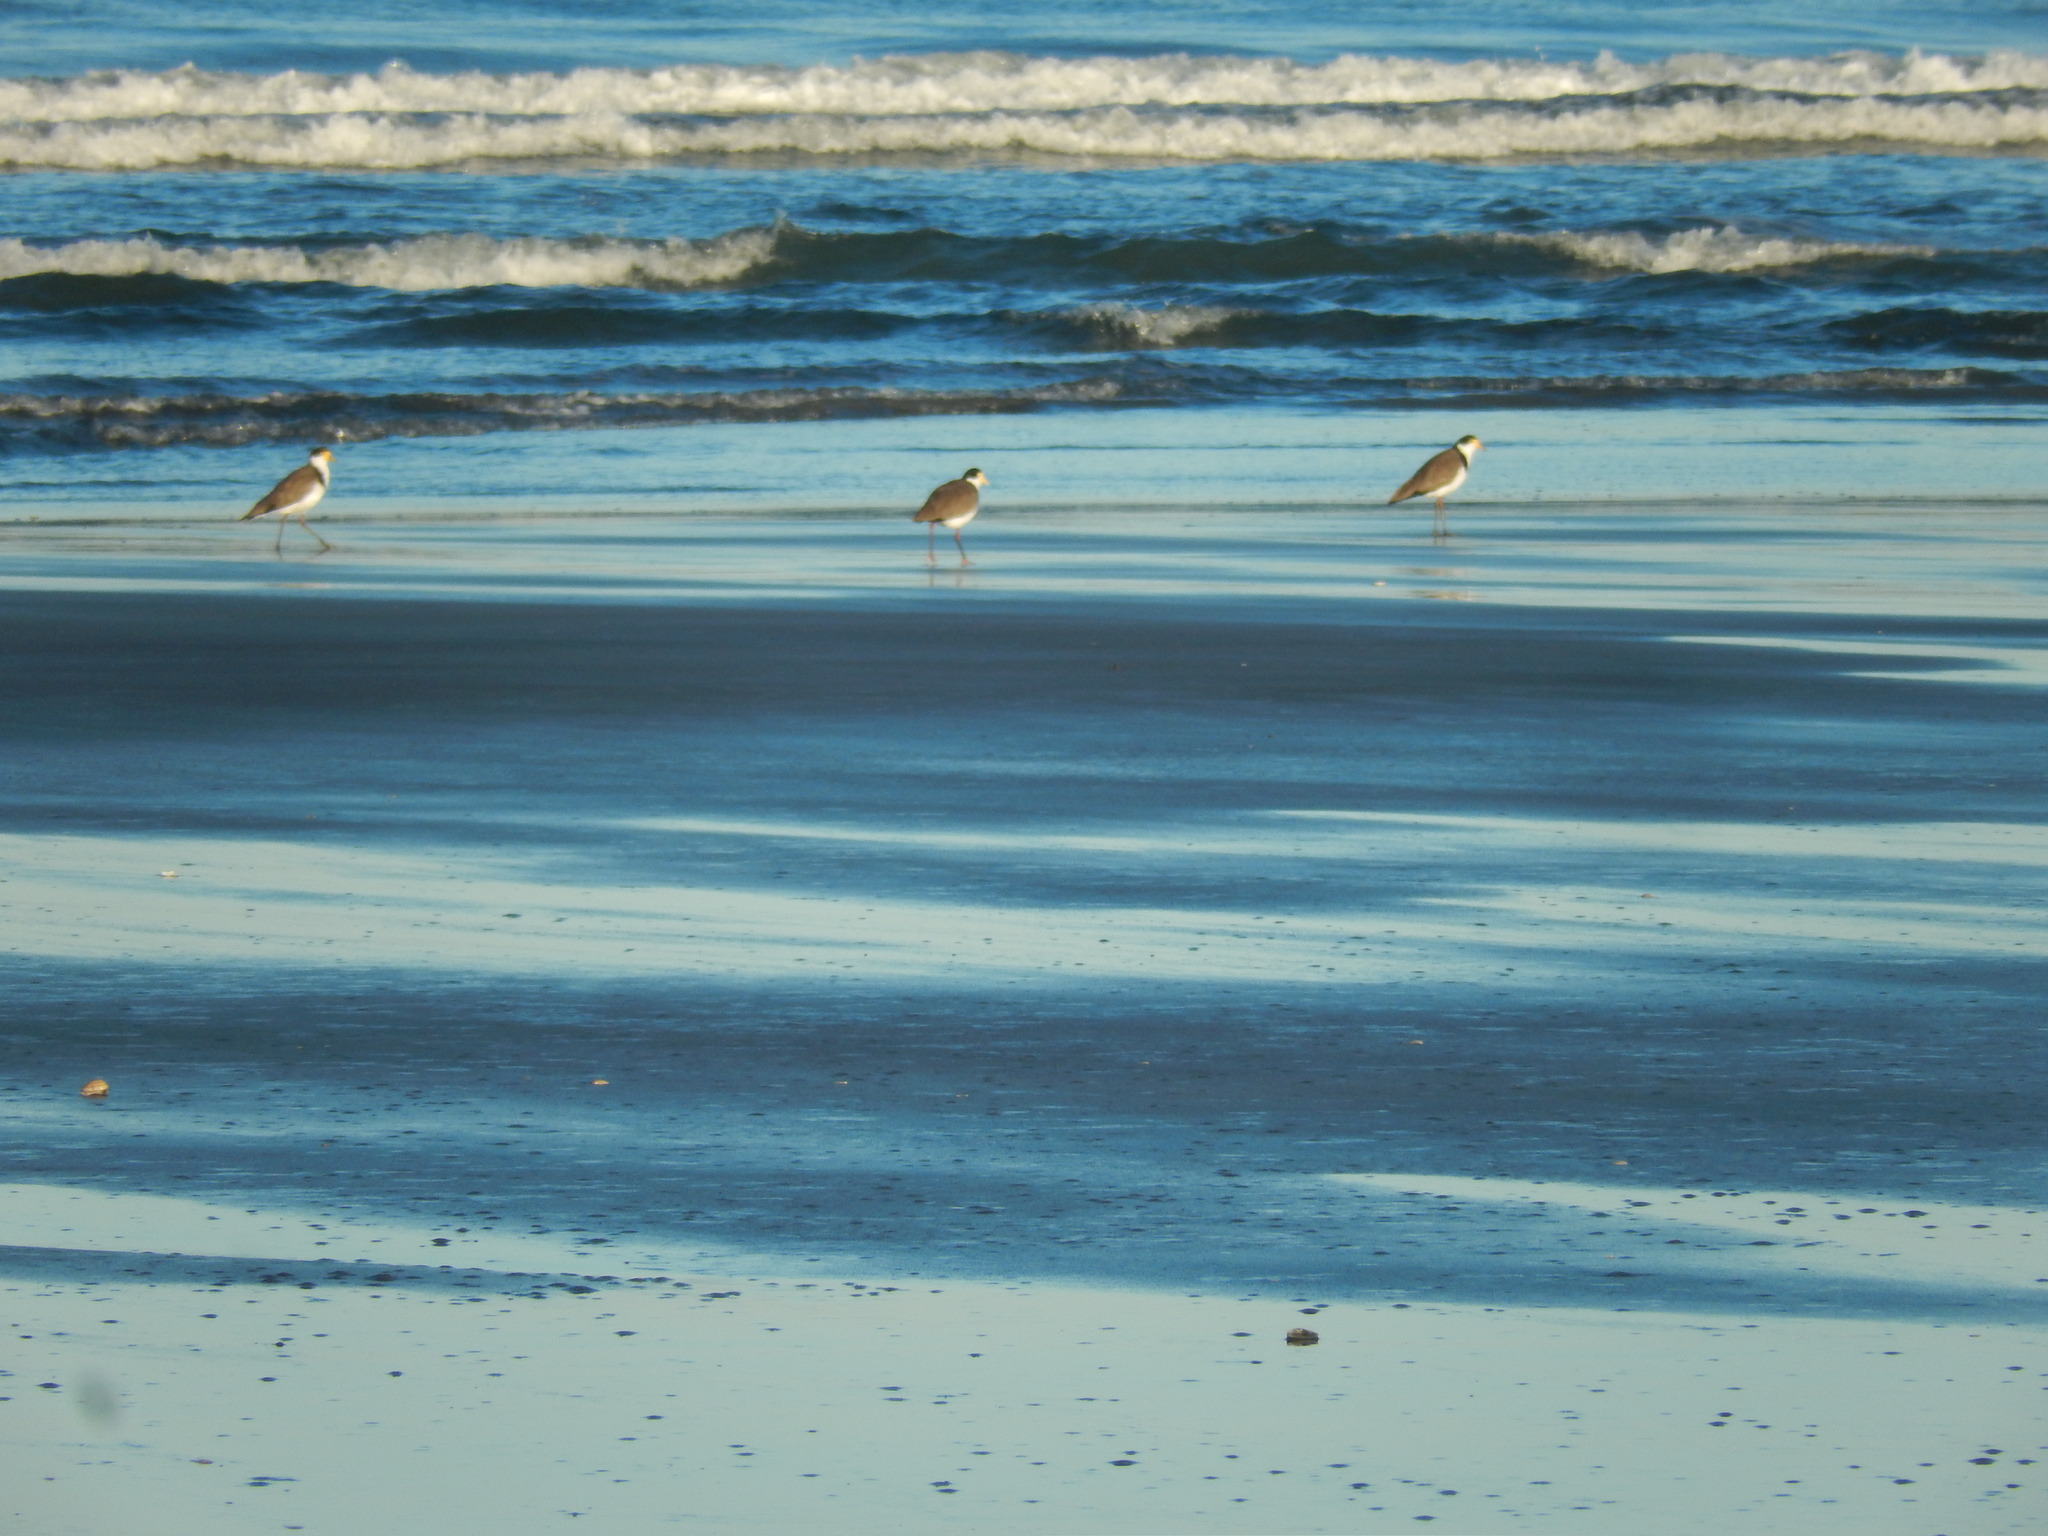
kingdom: Animalia
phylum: Chordata
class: Aves
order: Charadriiformes
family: Charadriidae
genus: Vanellus
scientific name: Vanellus miles
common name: Masked lapwing
